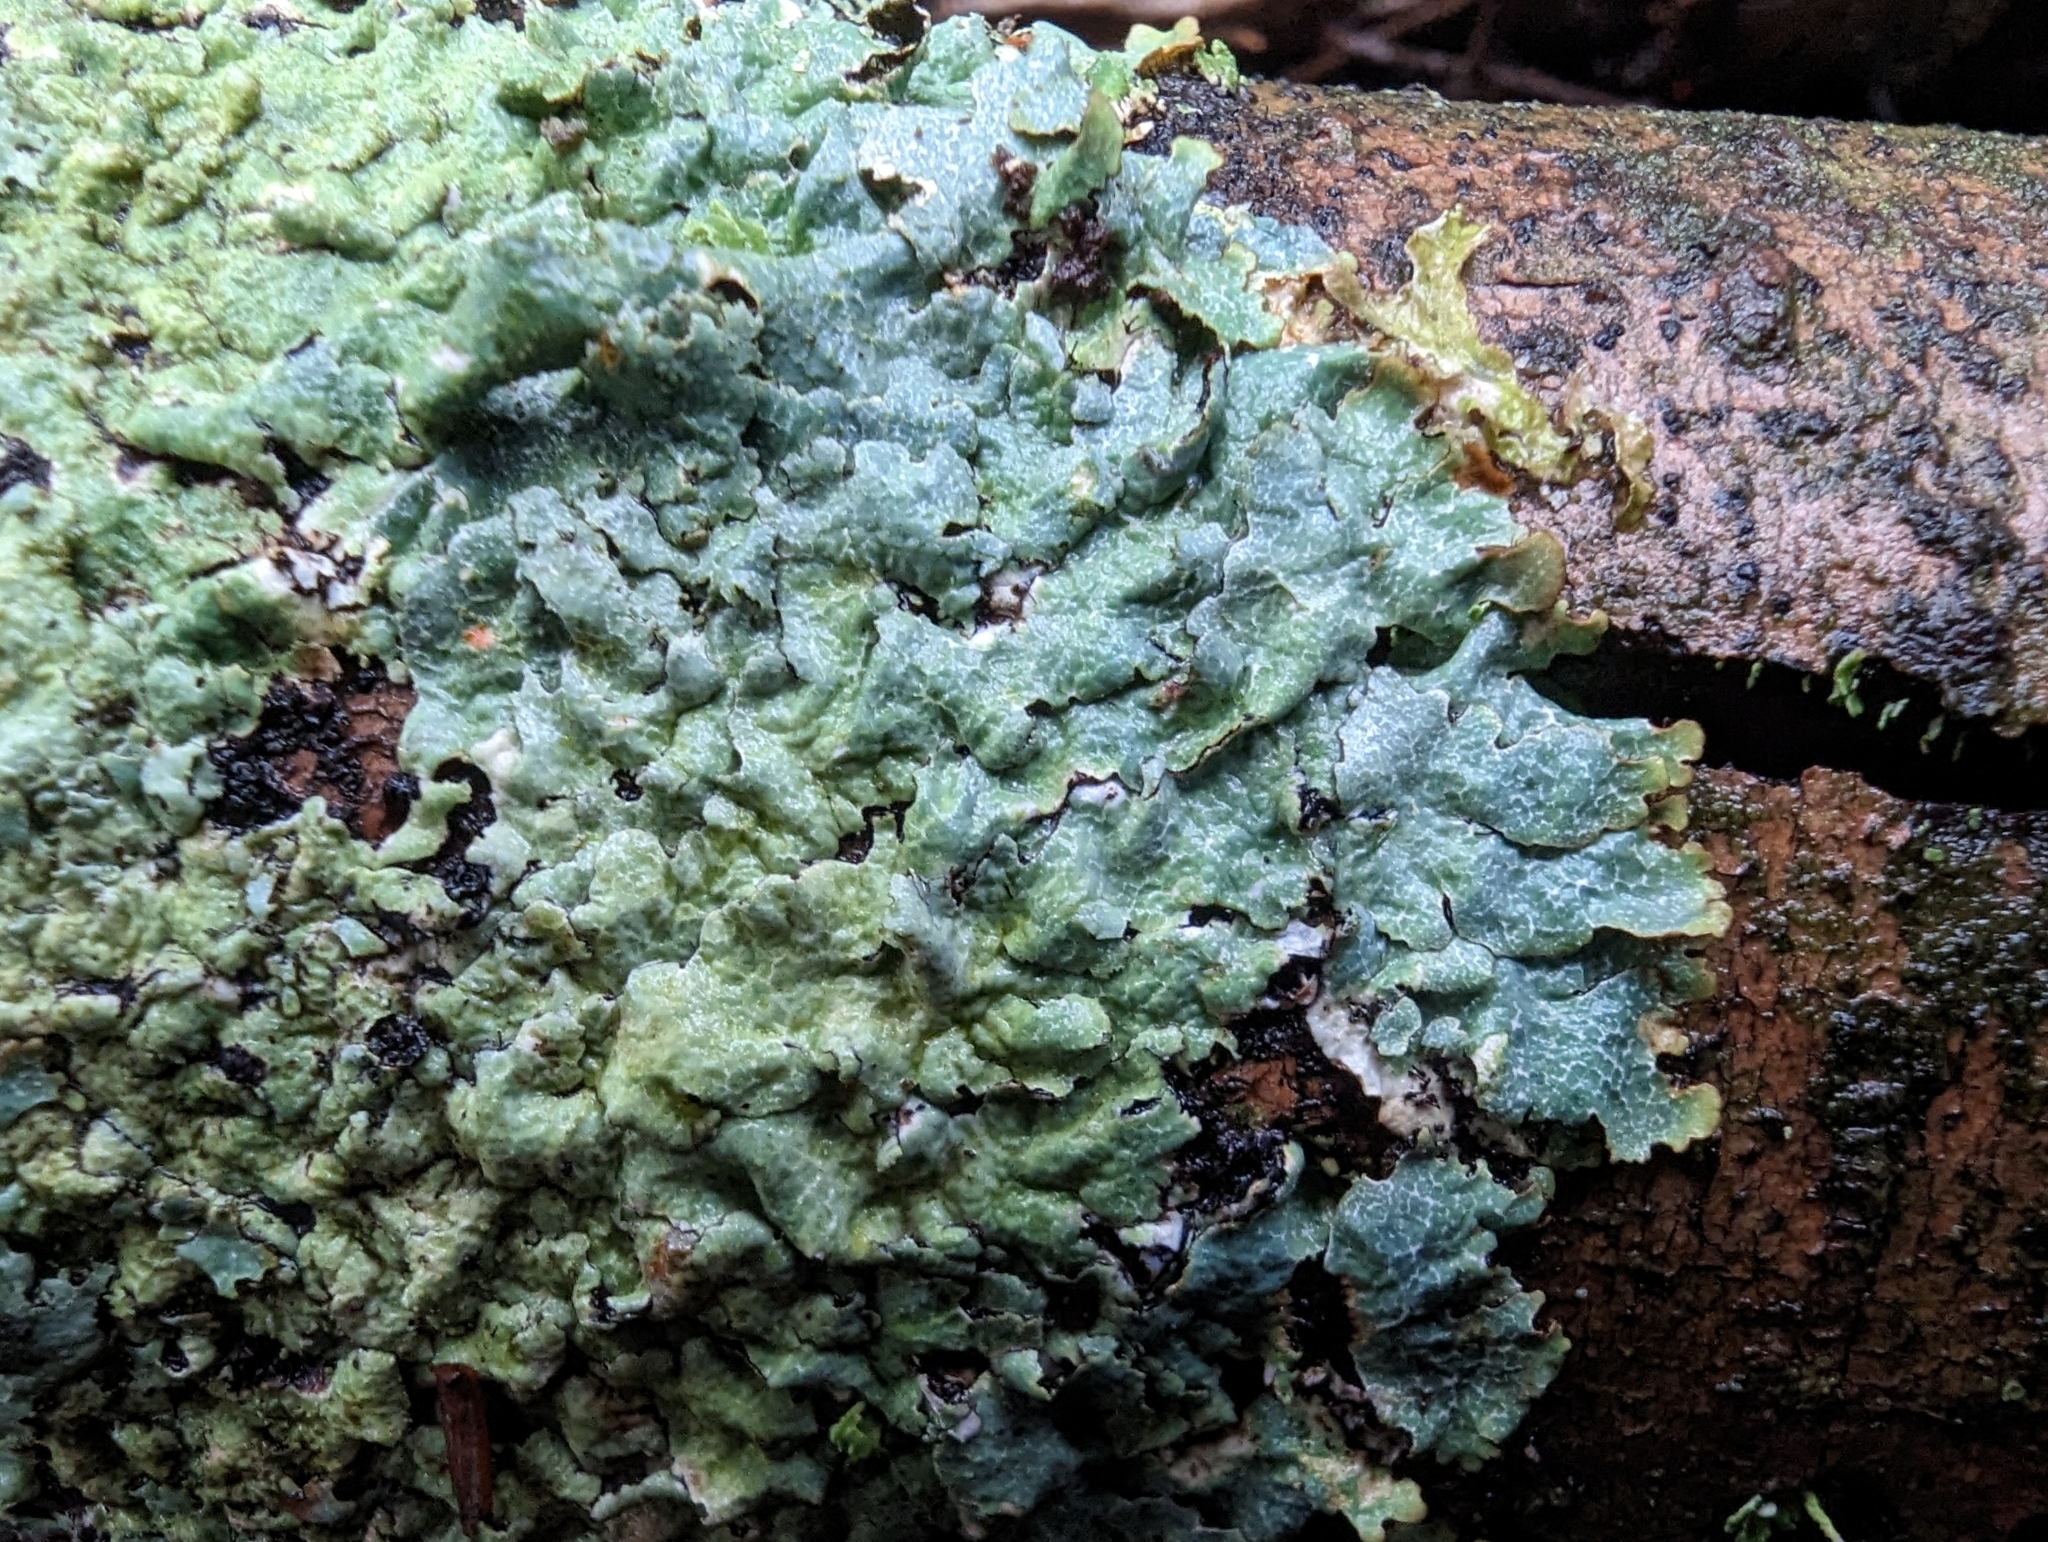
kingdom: Fungi
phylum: Ascomycota
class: Lecanoromycetes
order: Lecanorales
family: Parmeliaceae
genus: Parmelia
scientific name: Parmelia sulcata
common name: Netted shield lichen
